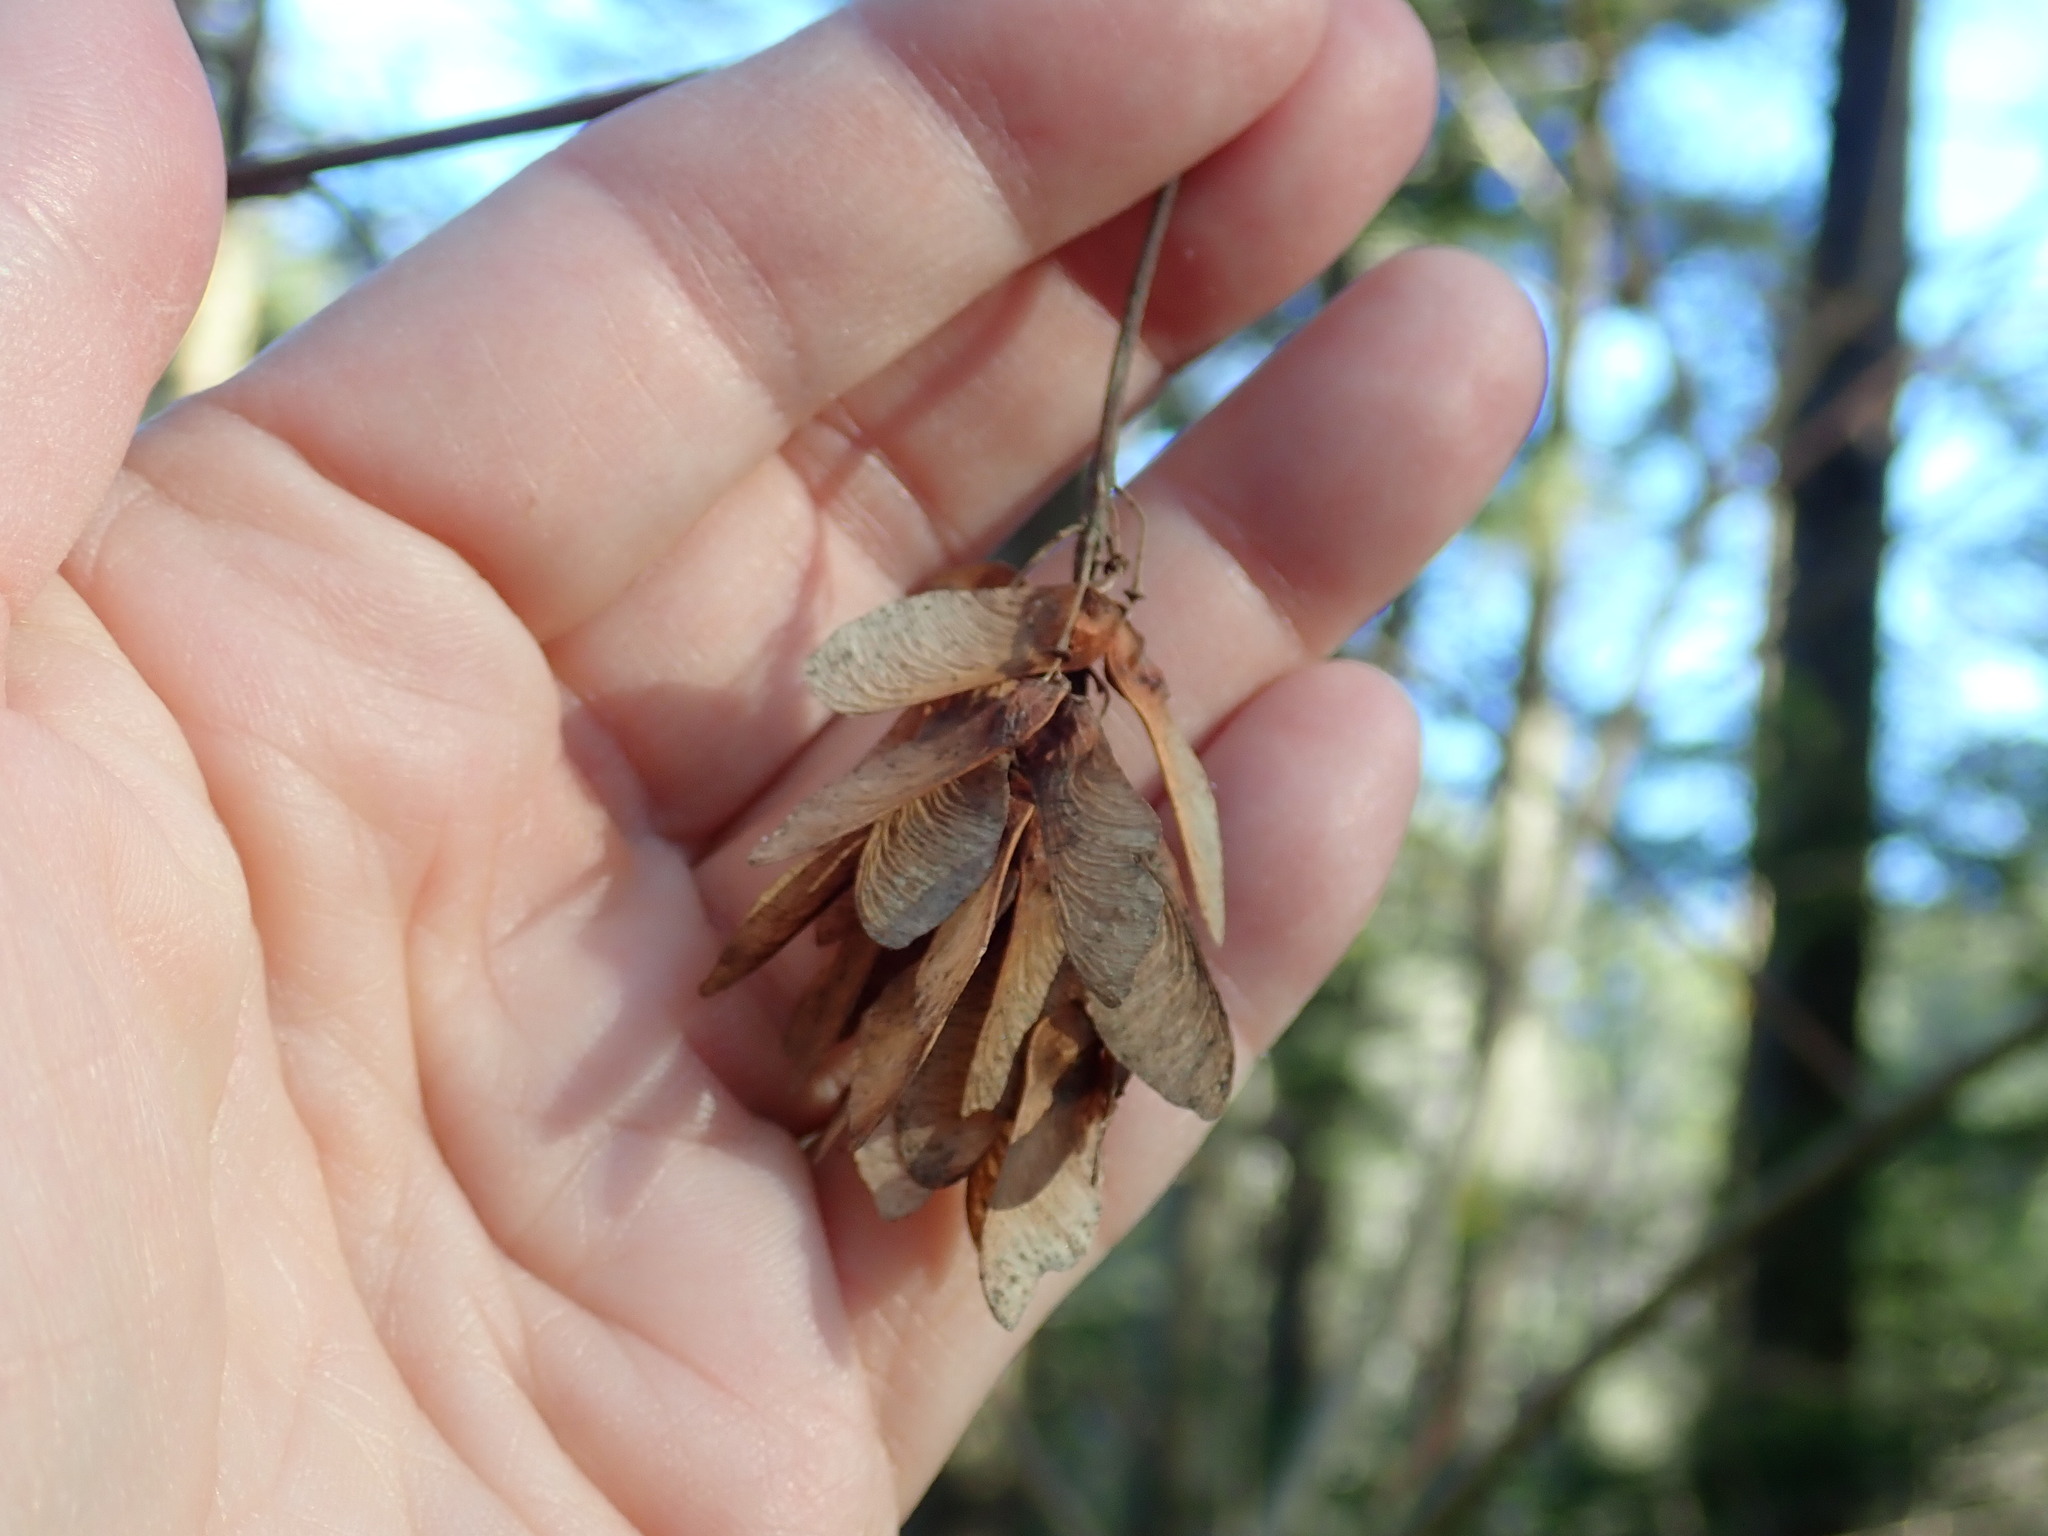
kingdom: Plantae
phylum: Tracheophyta
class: Magnoliopsida
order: Sapindales
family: Sapindaceae
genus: Acer
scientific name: Acer spicatum
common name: Mountain maple
